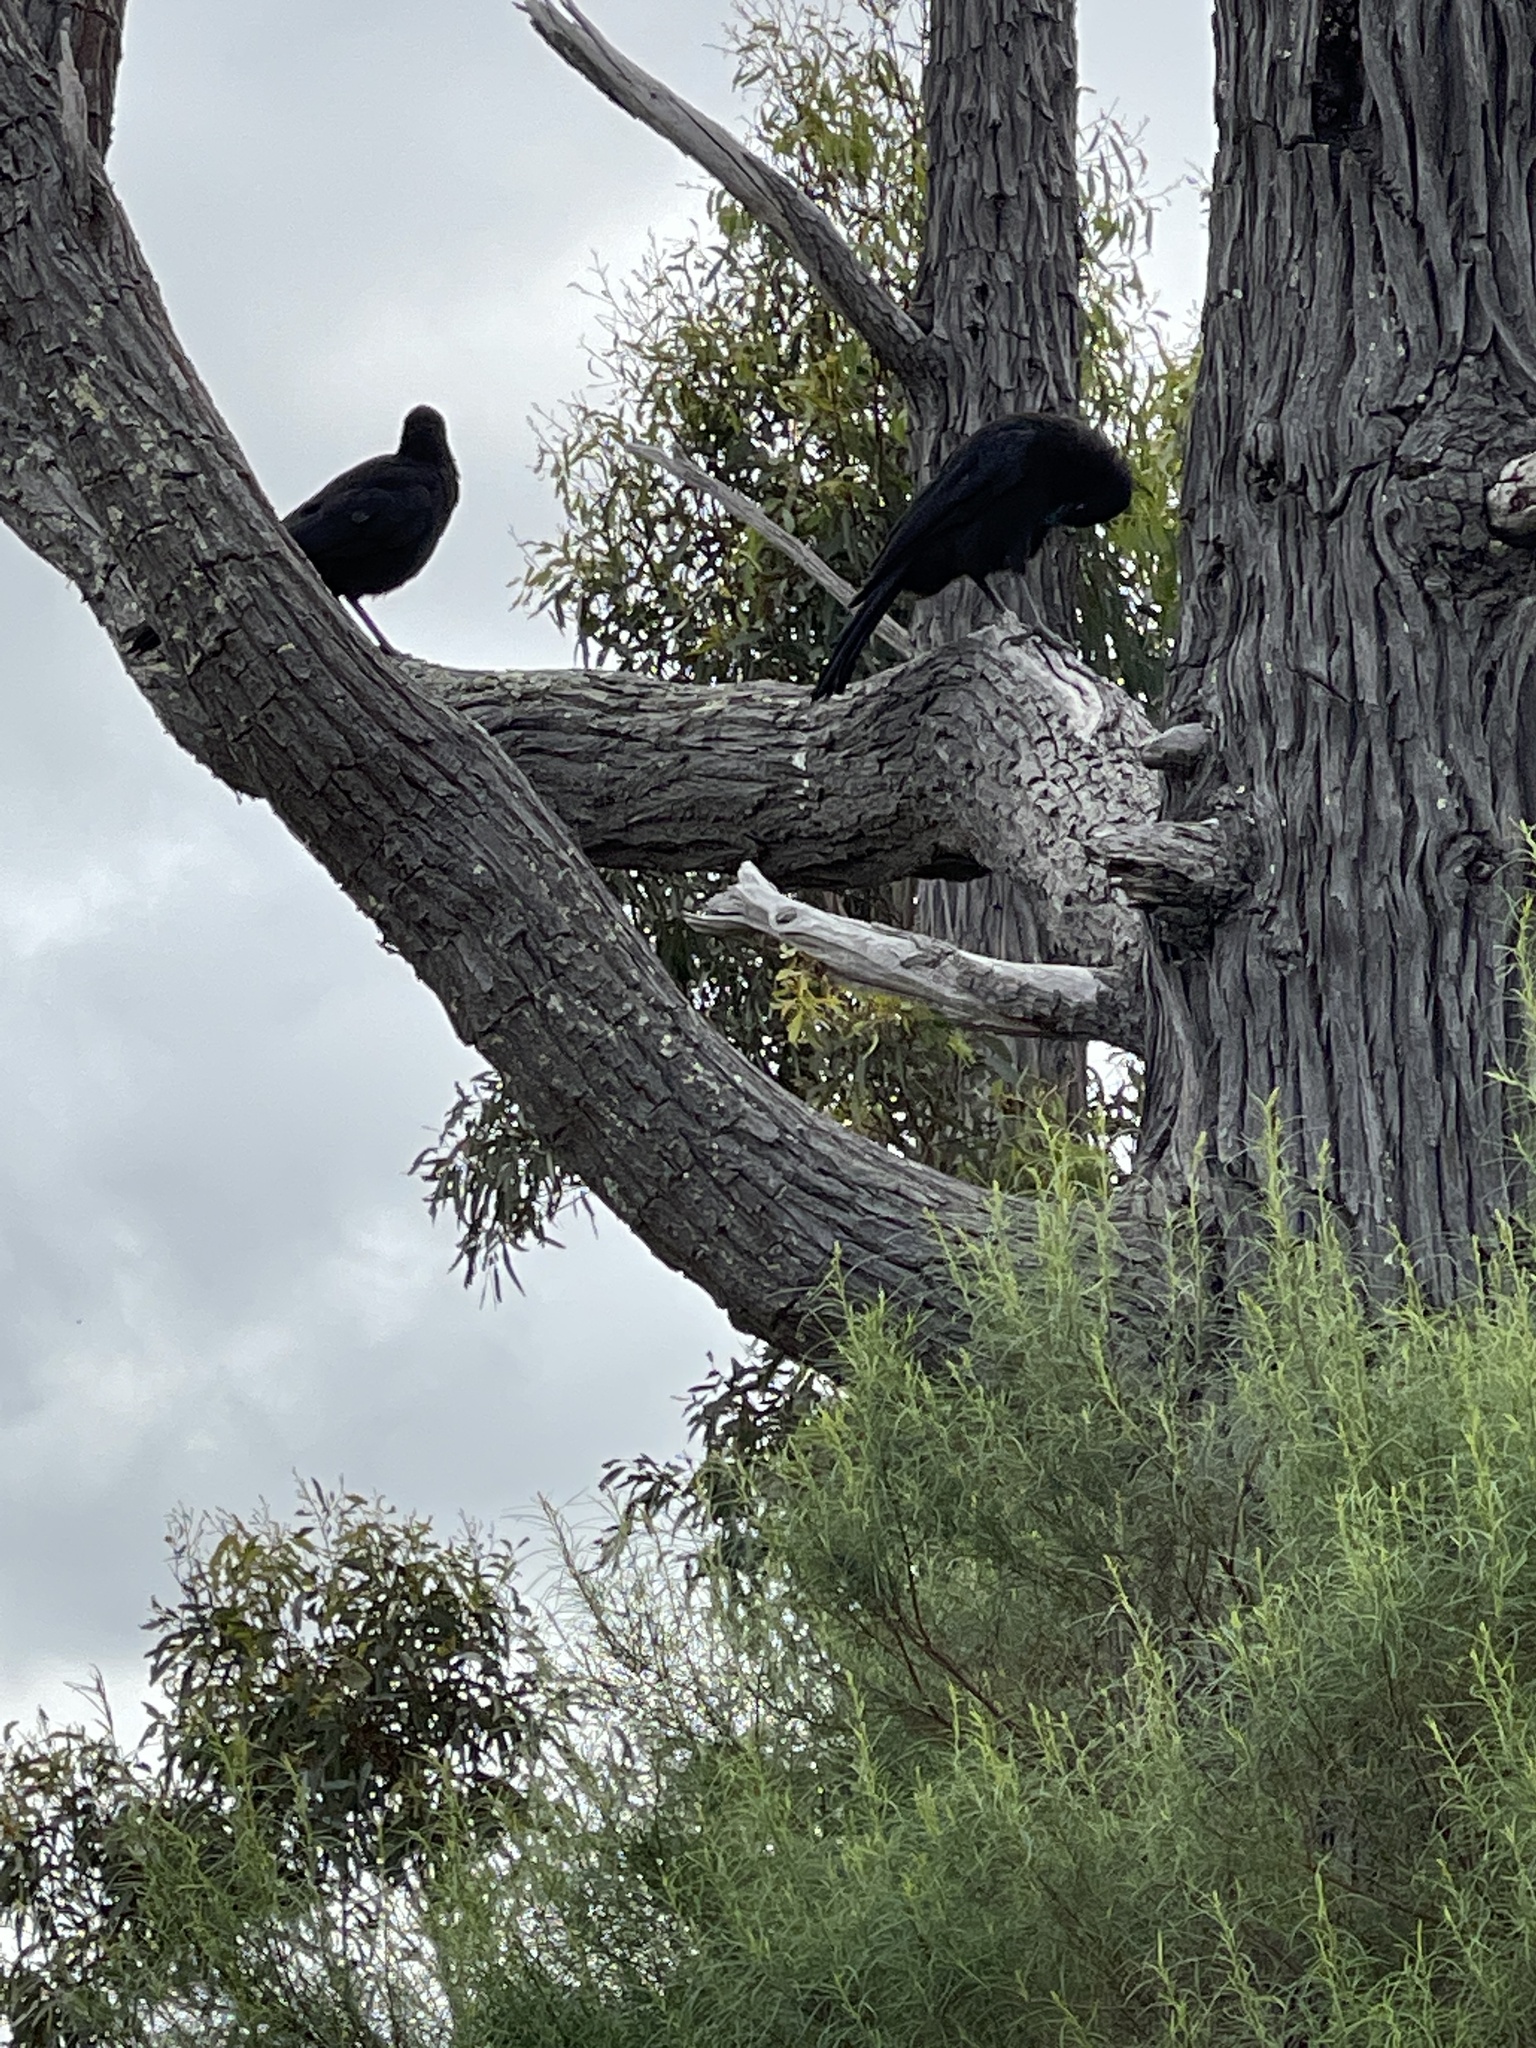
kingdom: Animalia
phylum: Chordata
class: Aves
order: Passeriformes
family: Corcoracidae
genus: Corcorax
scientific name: Corcorax melanoramphos
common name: White-winged chough
